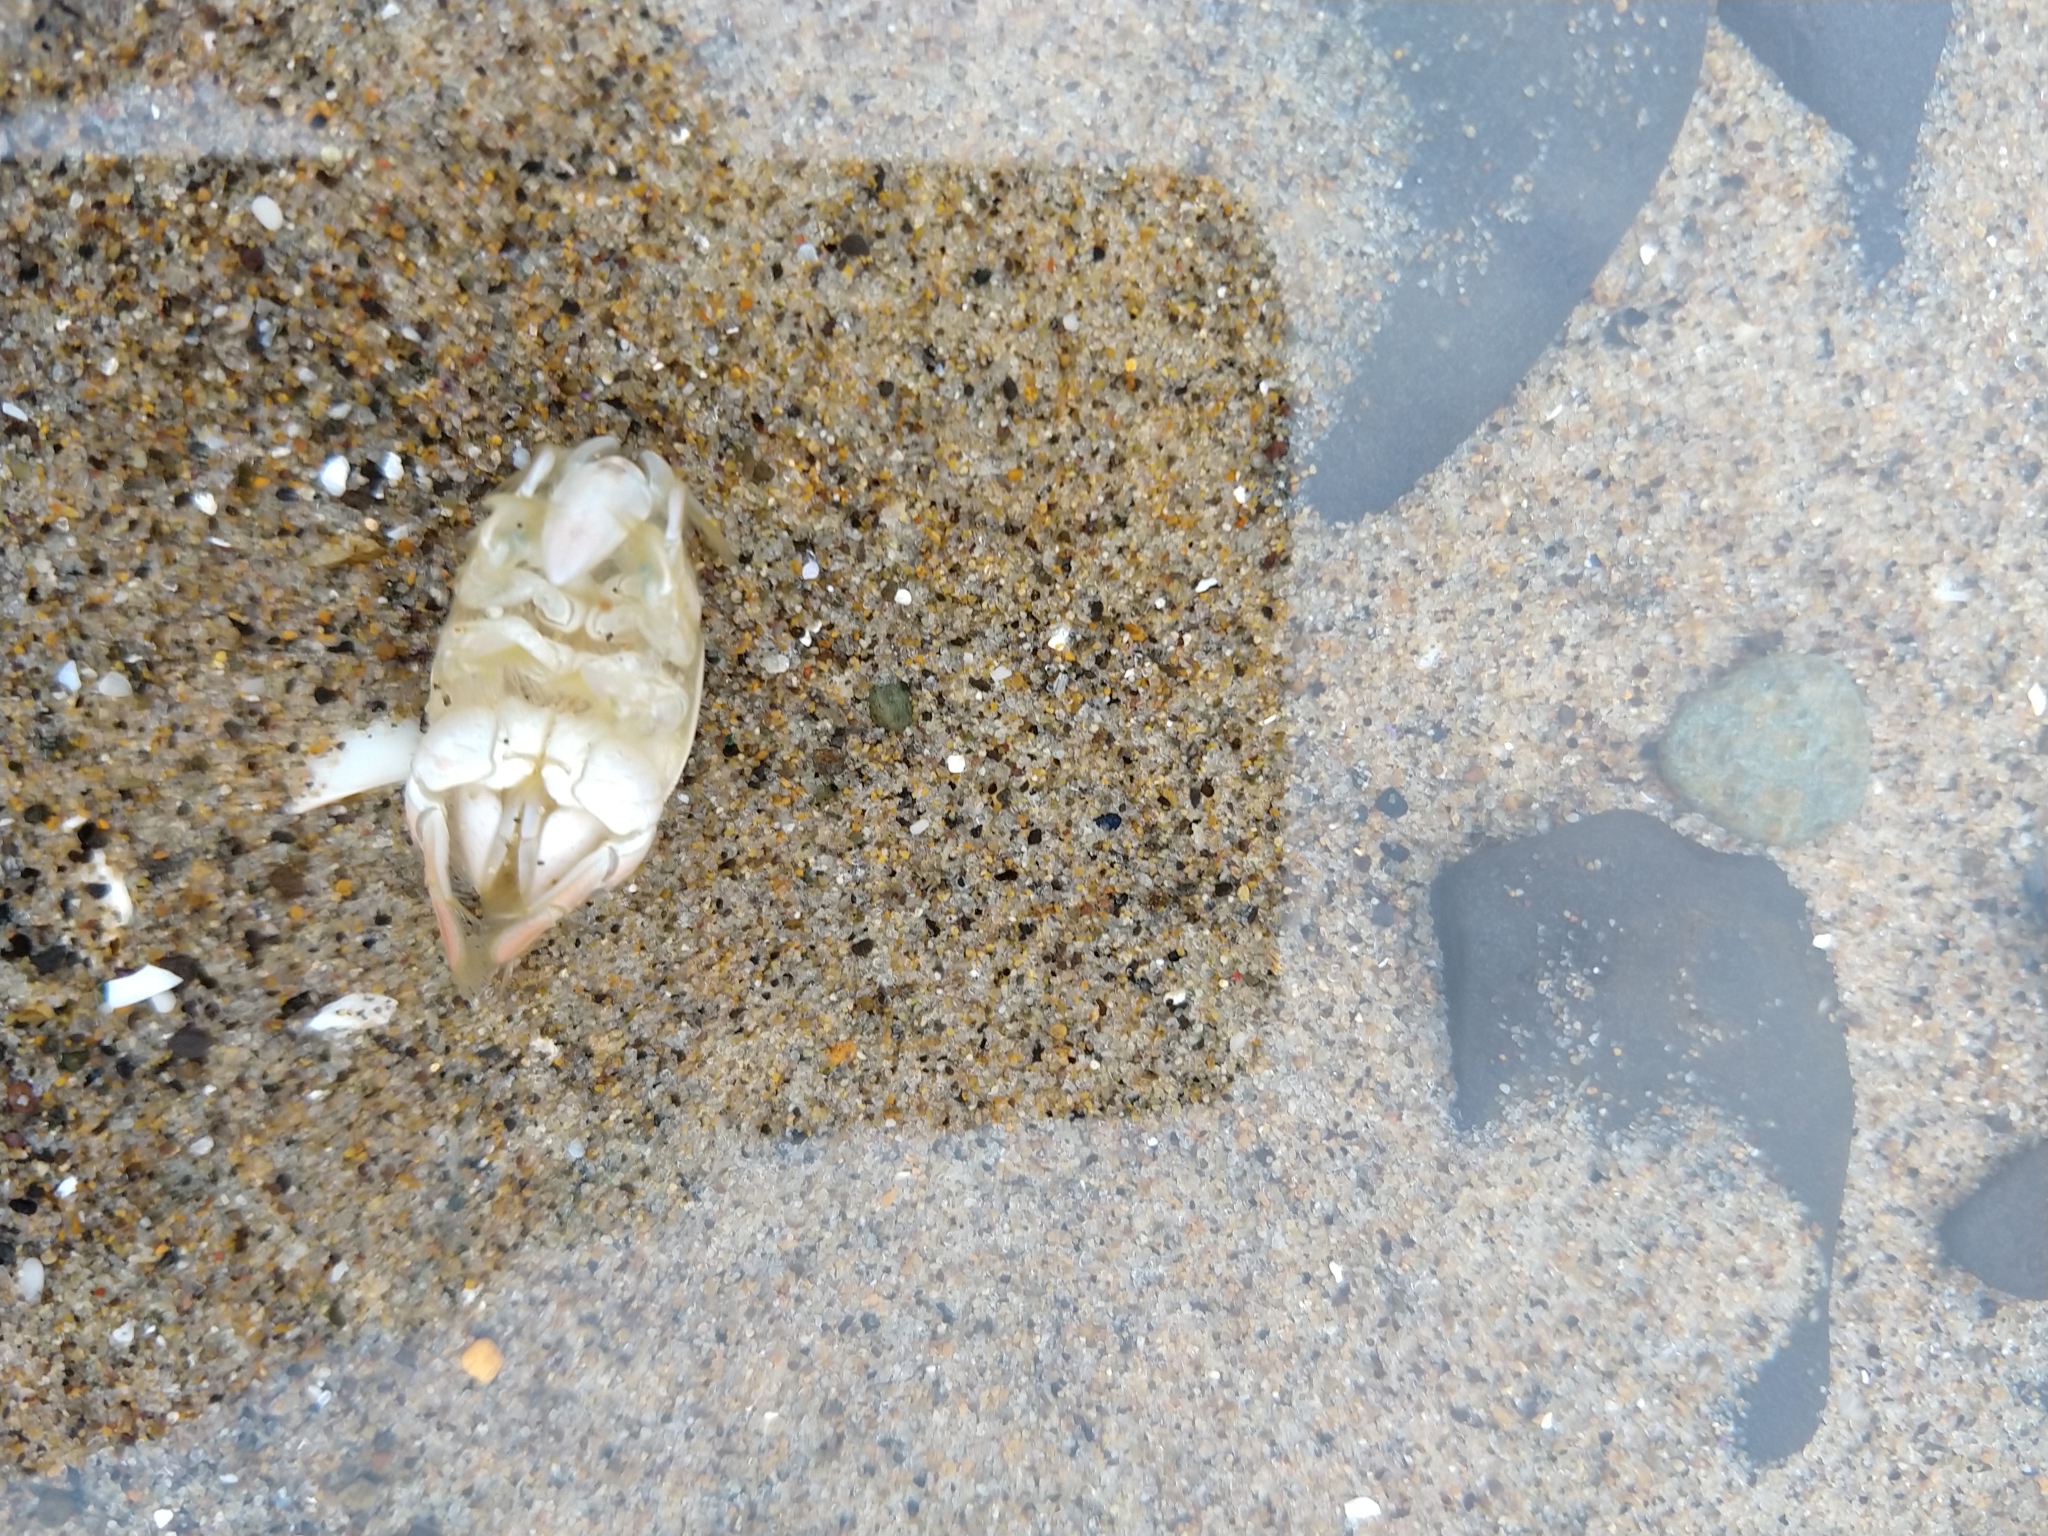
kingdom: Animalia
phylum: Arthropoda
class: Malacostraca
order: Decapoda
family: Hippidae
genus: Emerita
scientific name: Emerita analoga
